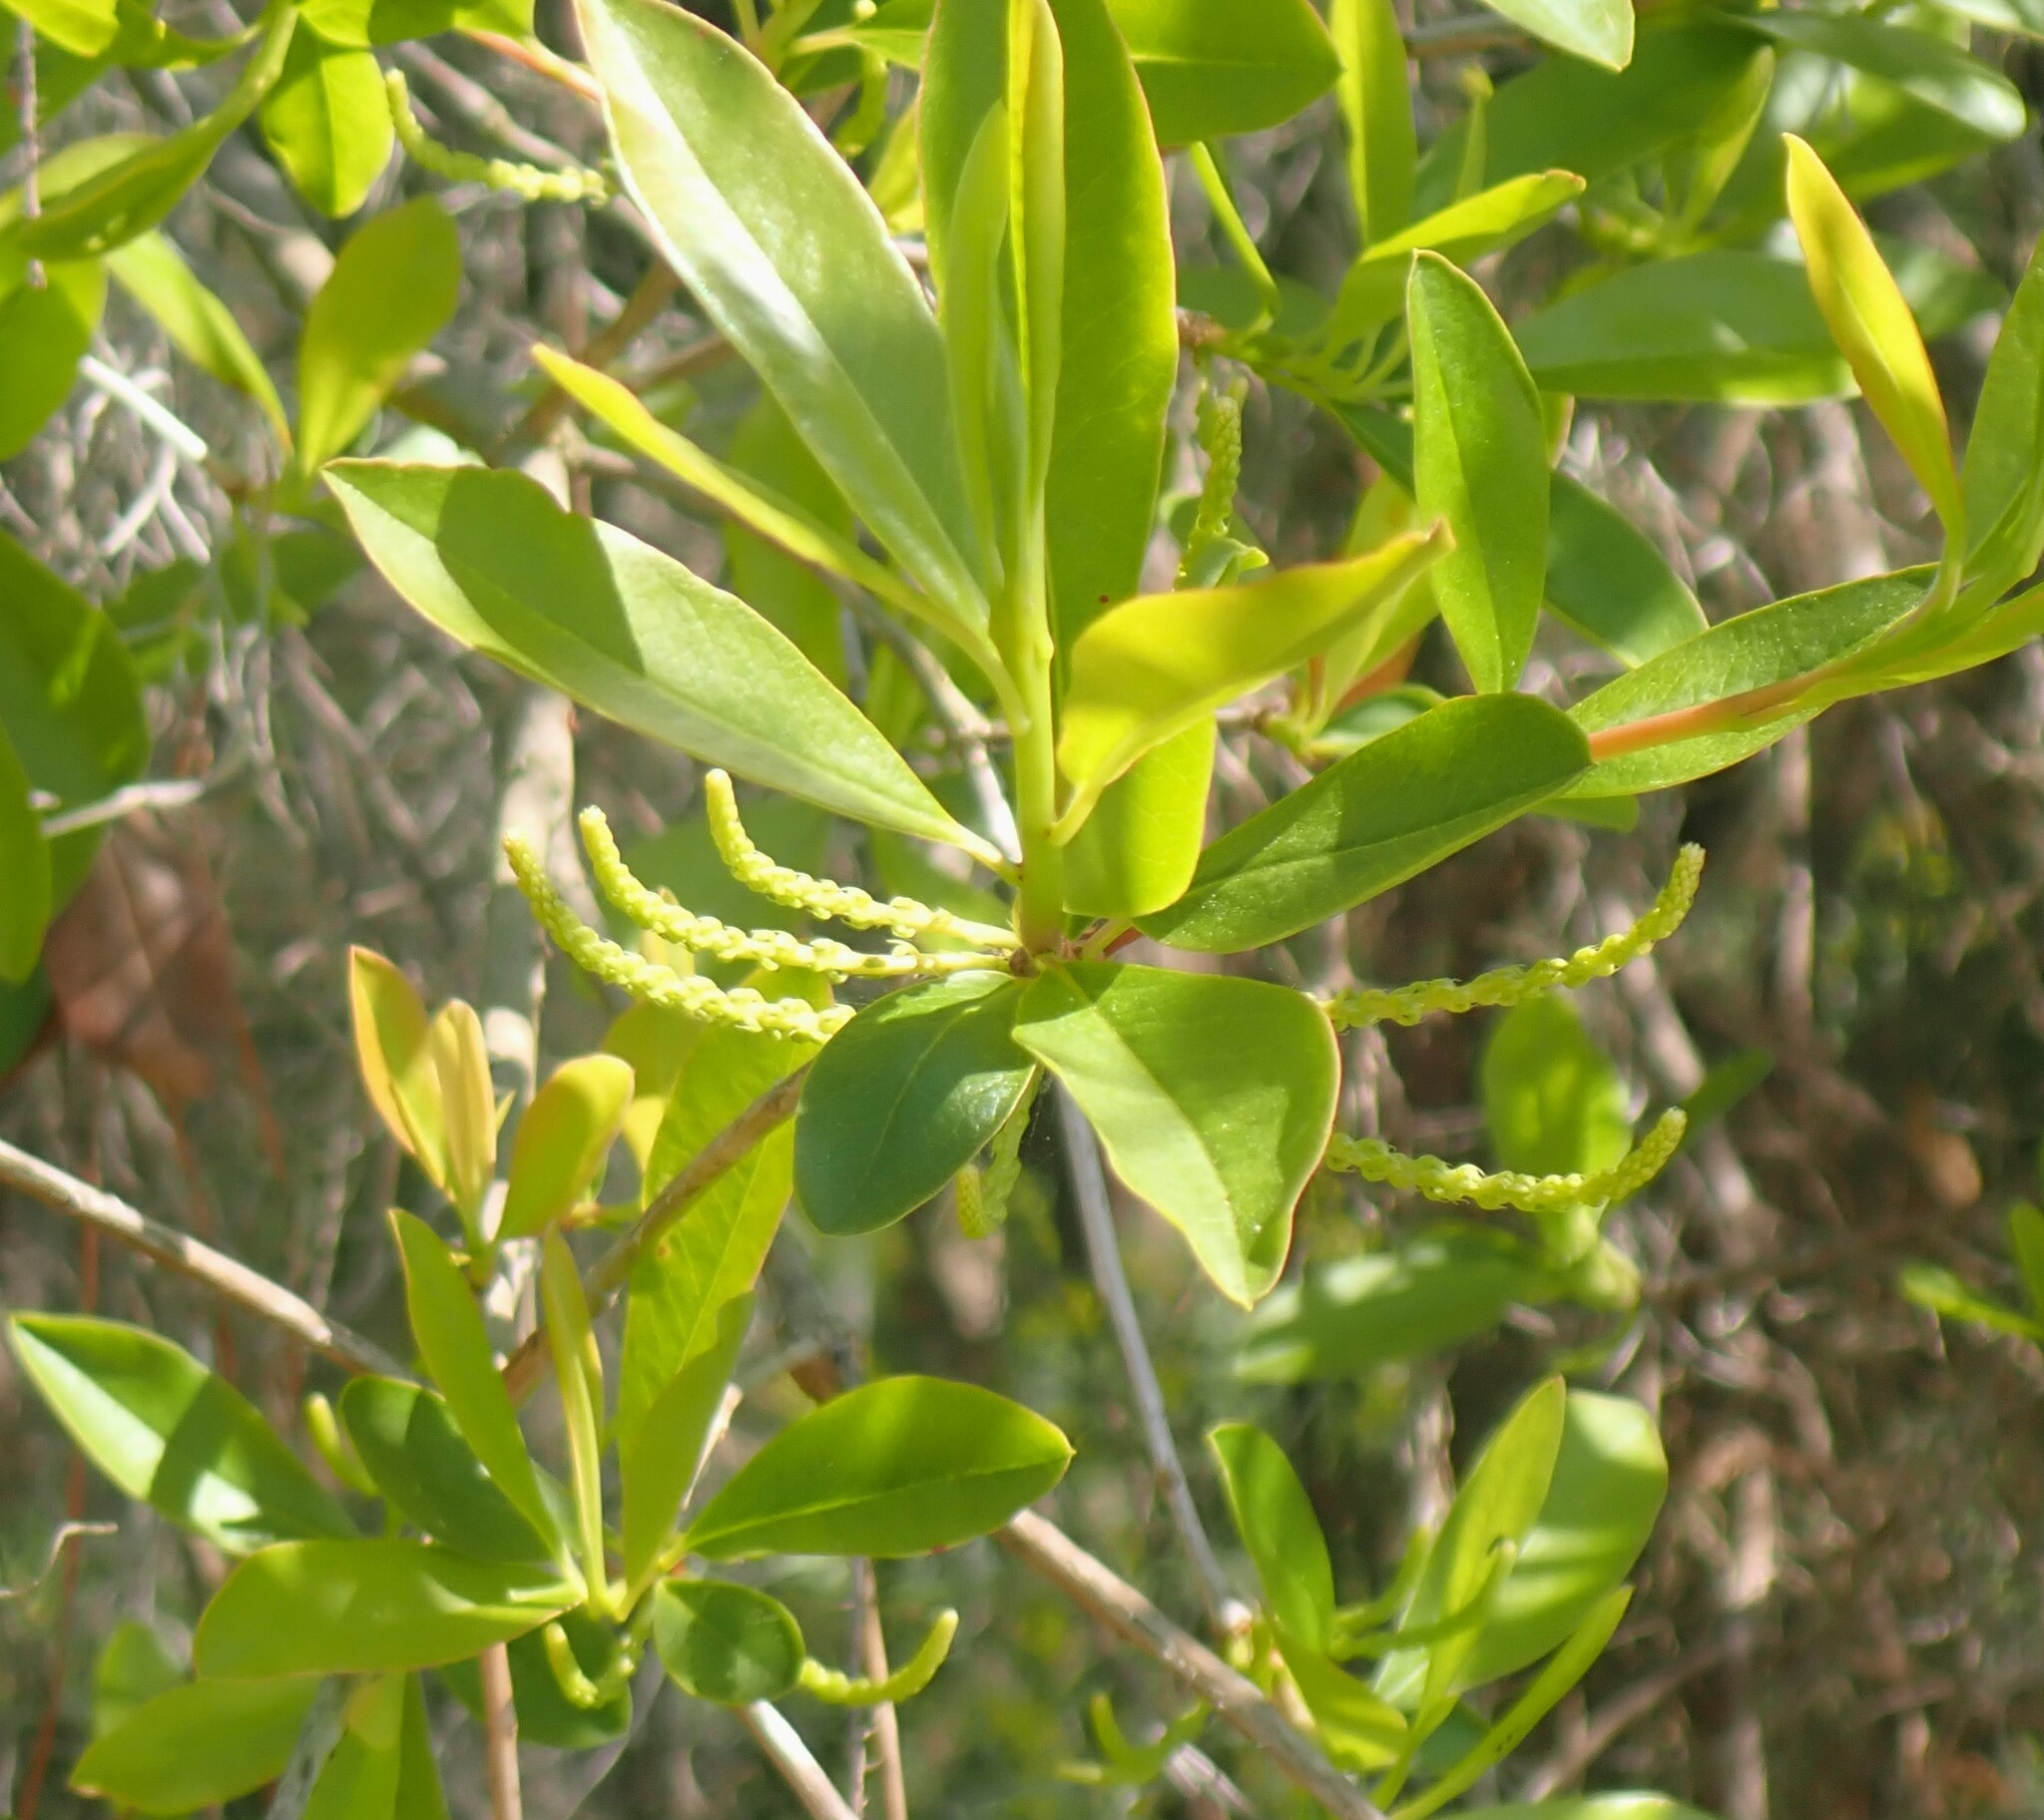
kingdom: Plantae
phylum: Tracheophyta
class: Magnoliopsida
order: Ericales
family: Cyrillaceae
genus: Cyrilla
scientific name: Cyrilla racemiflora
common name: Black titi
